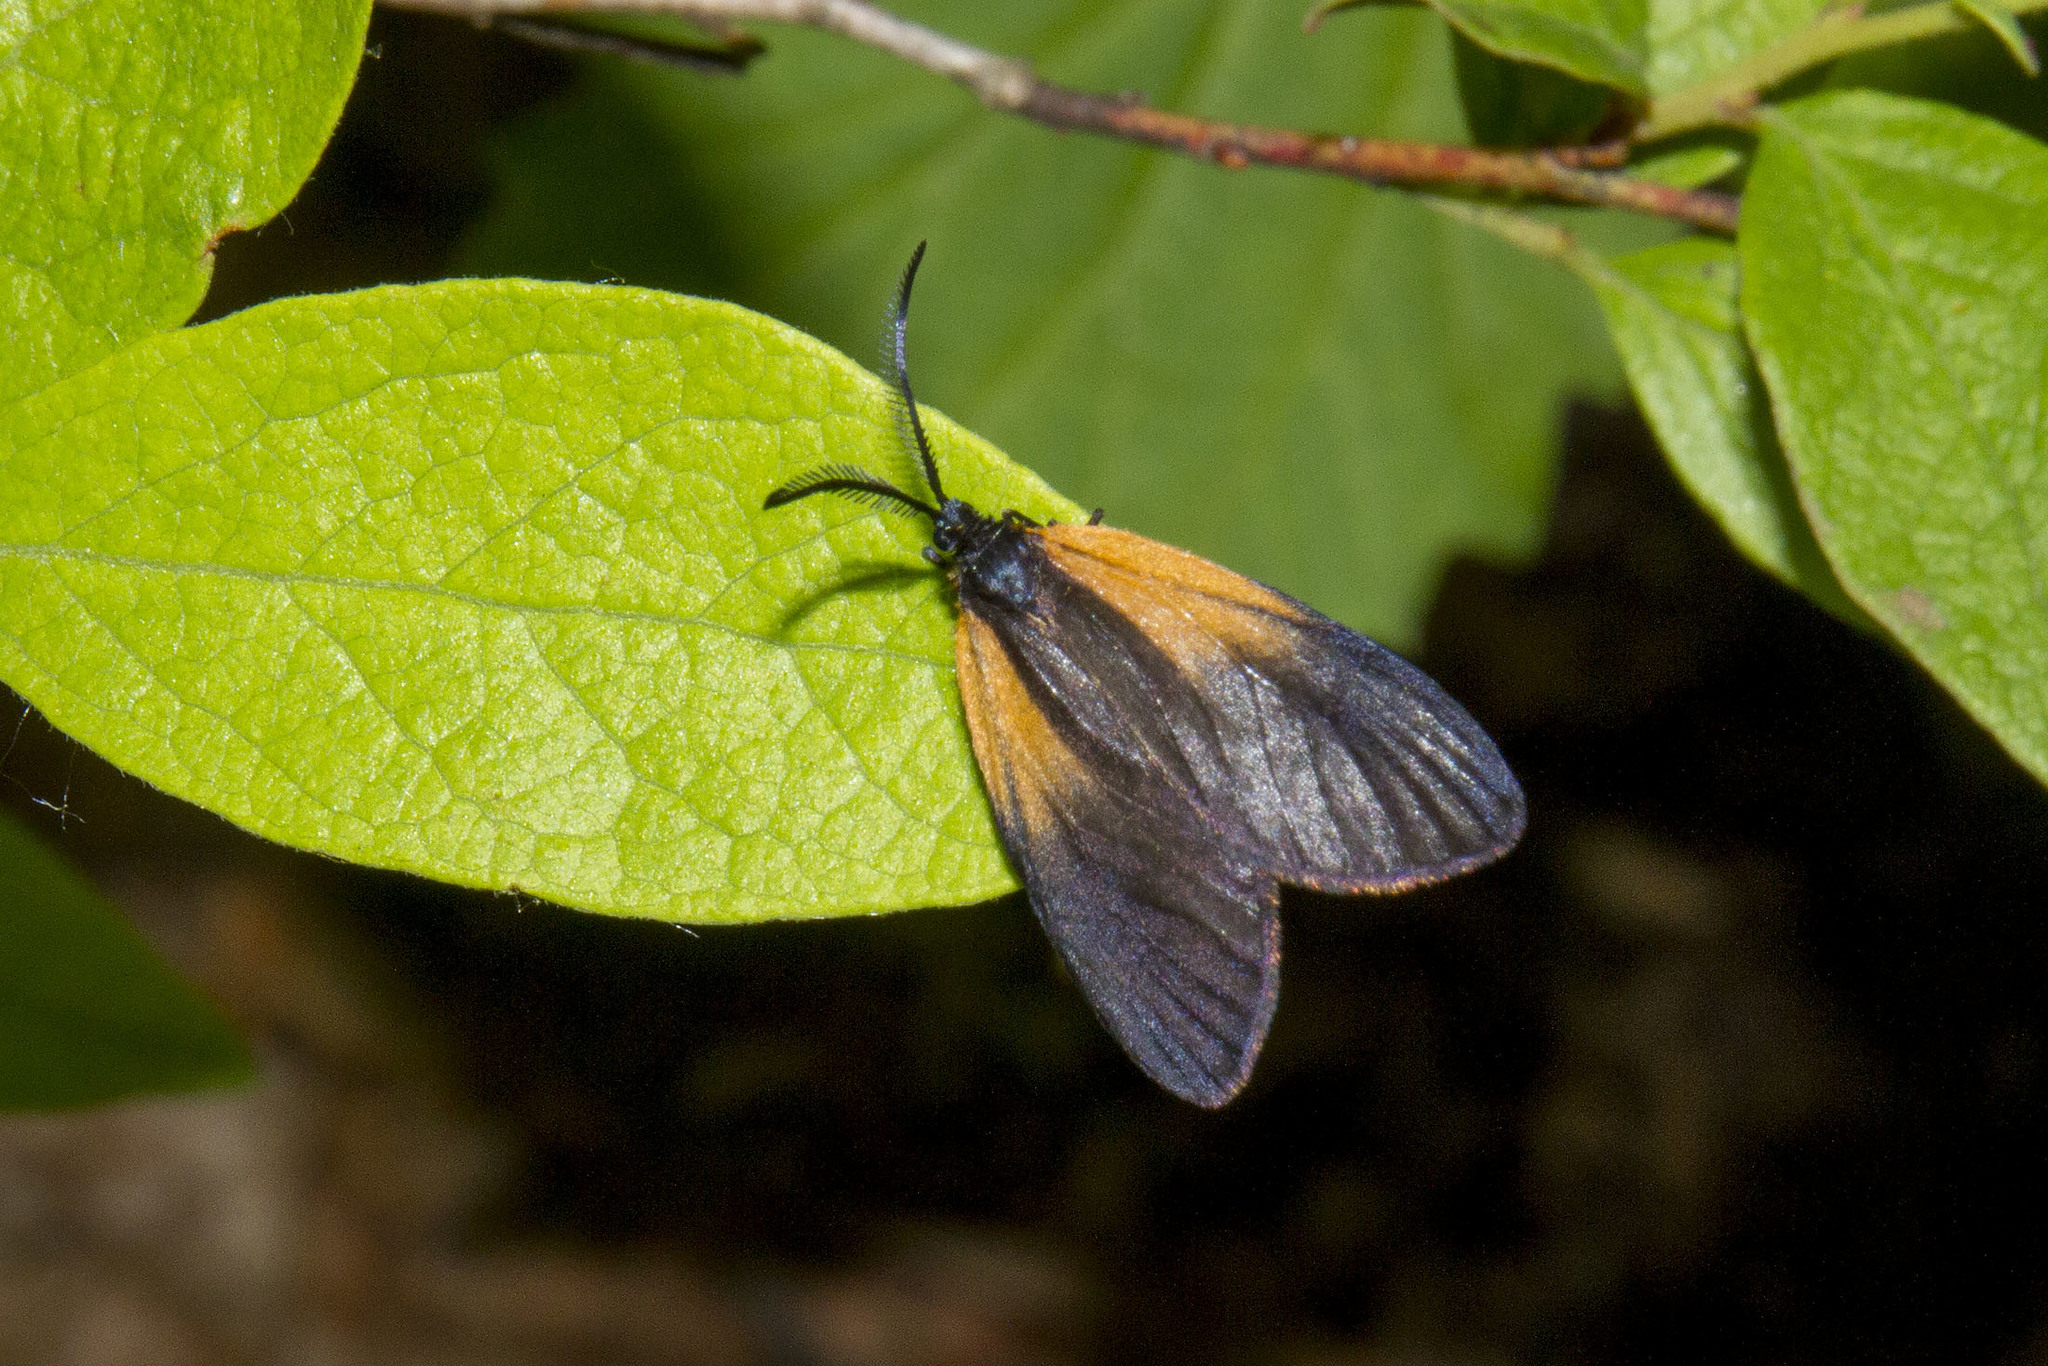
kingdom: Animalia
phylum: Arthropoda
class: Insecta
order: Lepidoptera
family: Zygaenidae
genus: Malthaca
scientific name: Malthaca dimidiata
